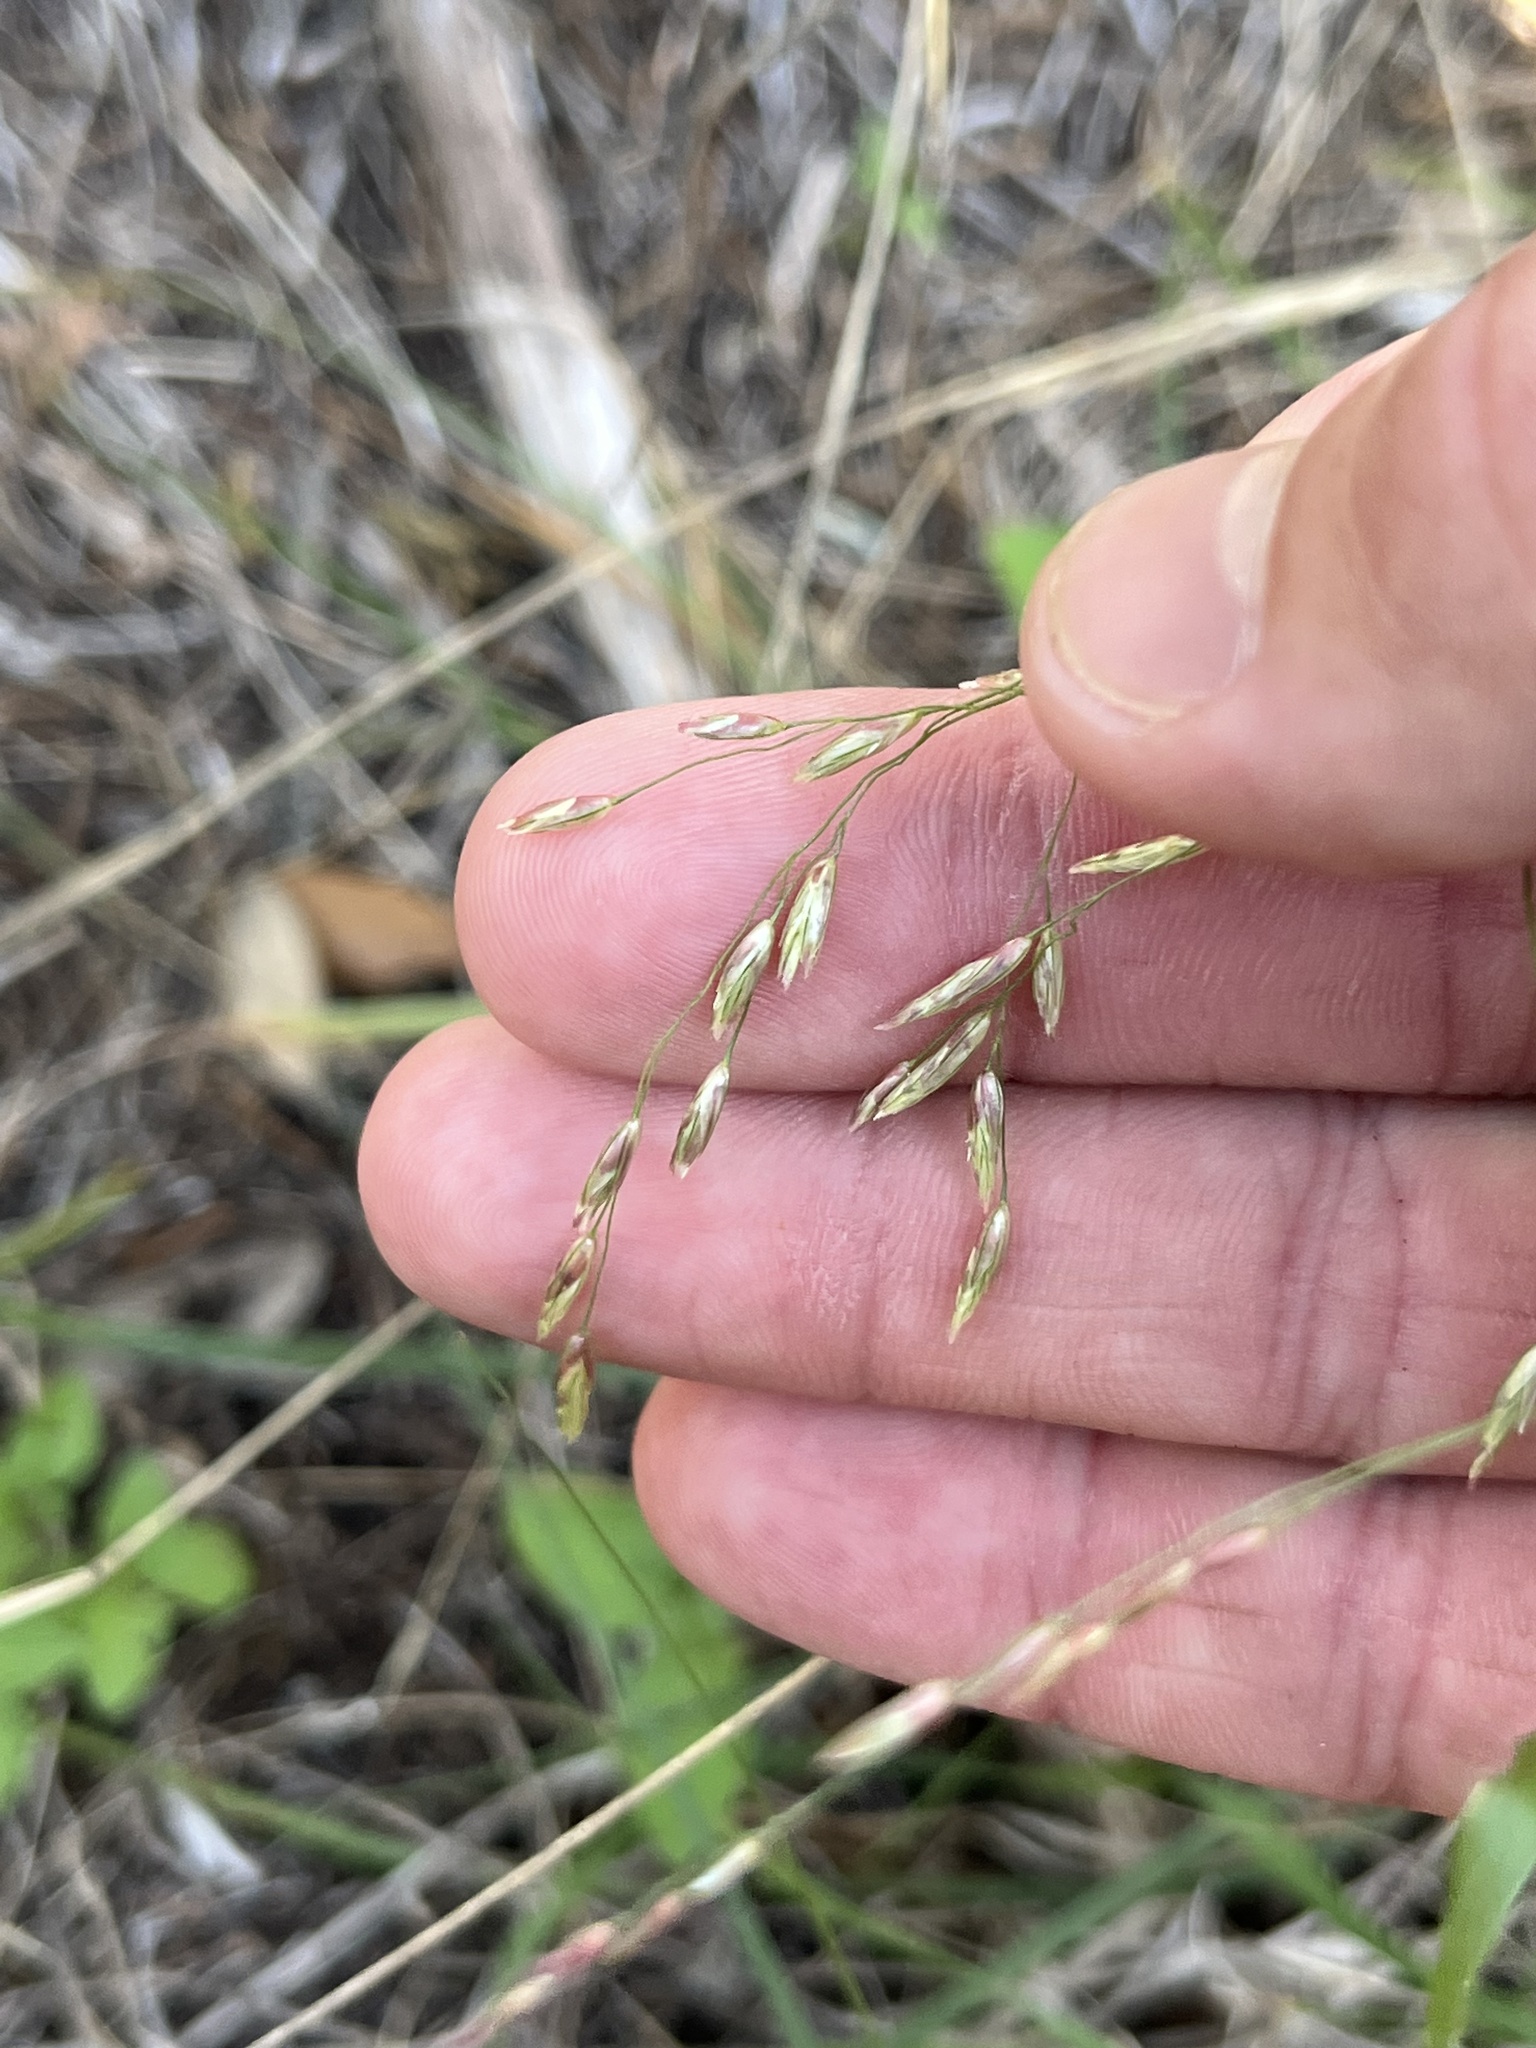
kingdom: Plantae
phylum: Tracheophyta
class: Liliopsida
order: Poales
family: Poaceae
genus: Tridens
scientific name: Tridens texanus
